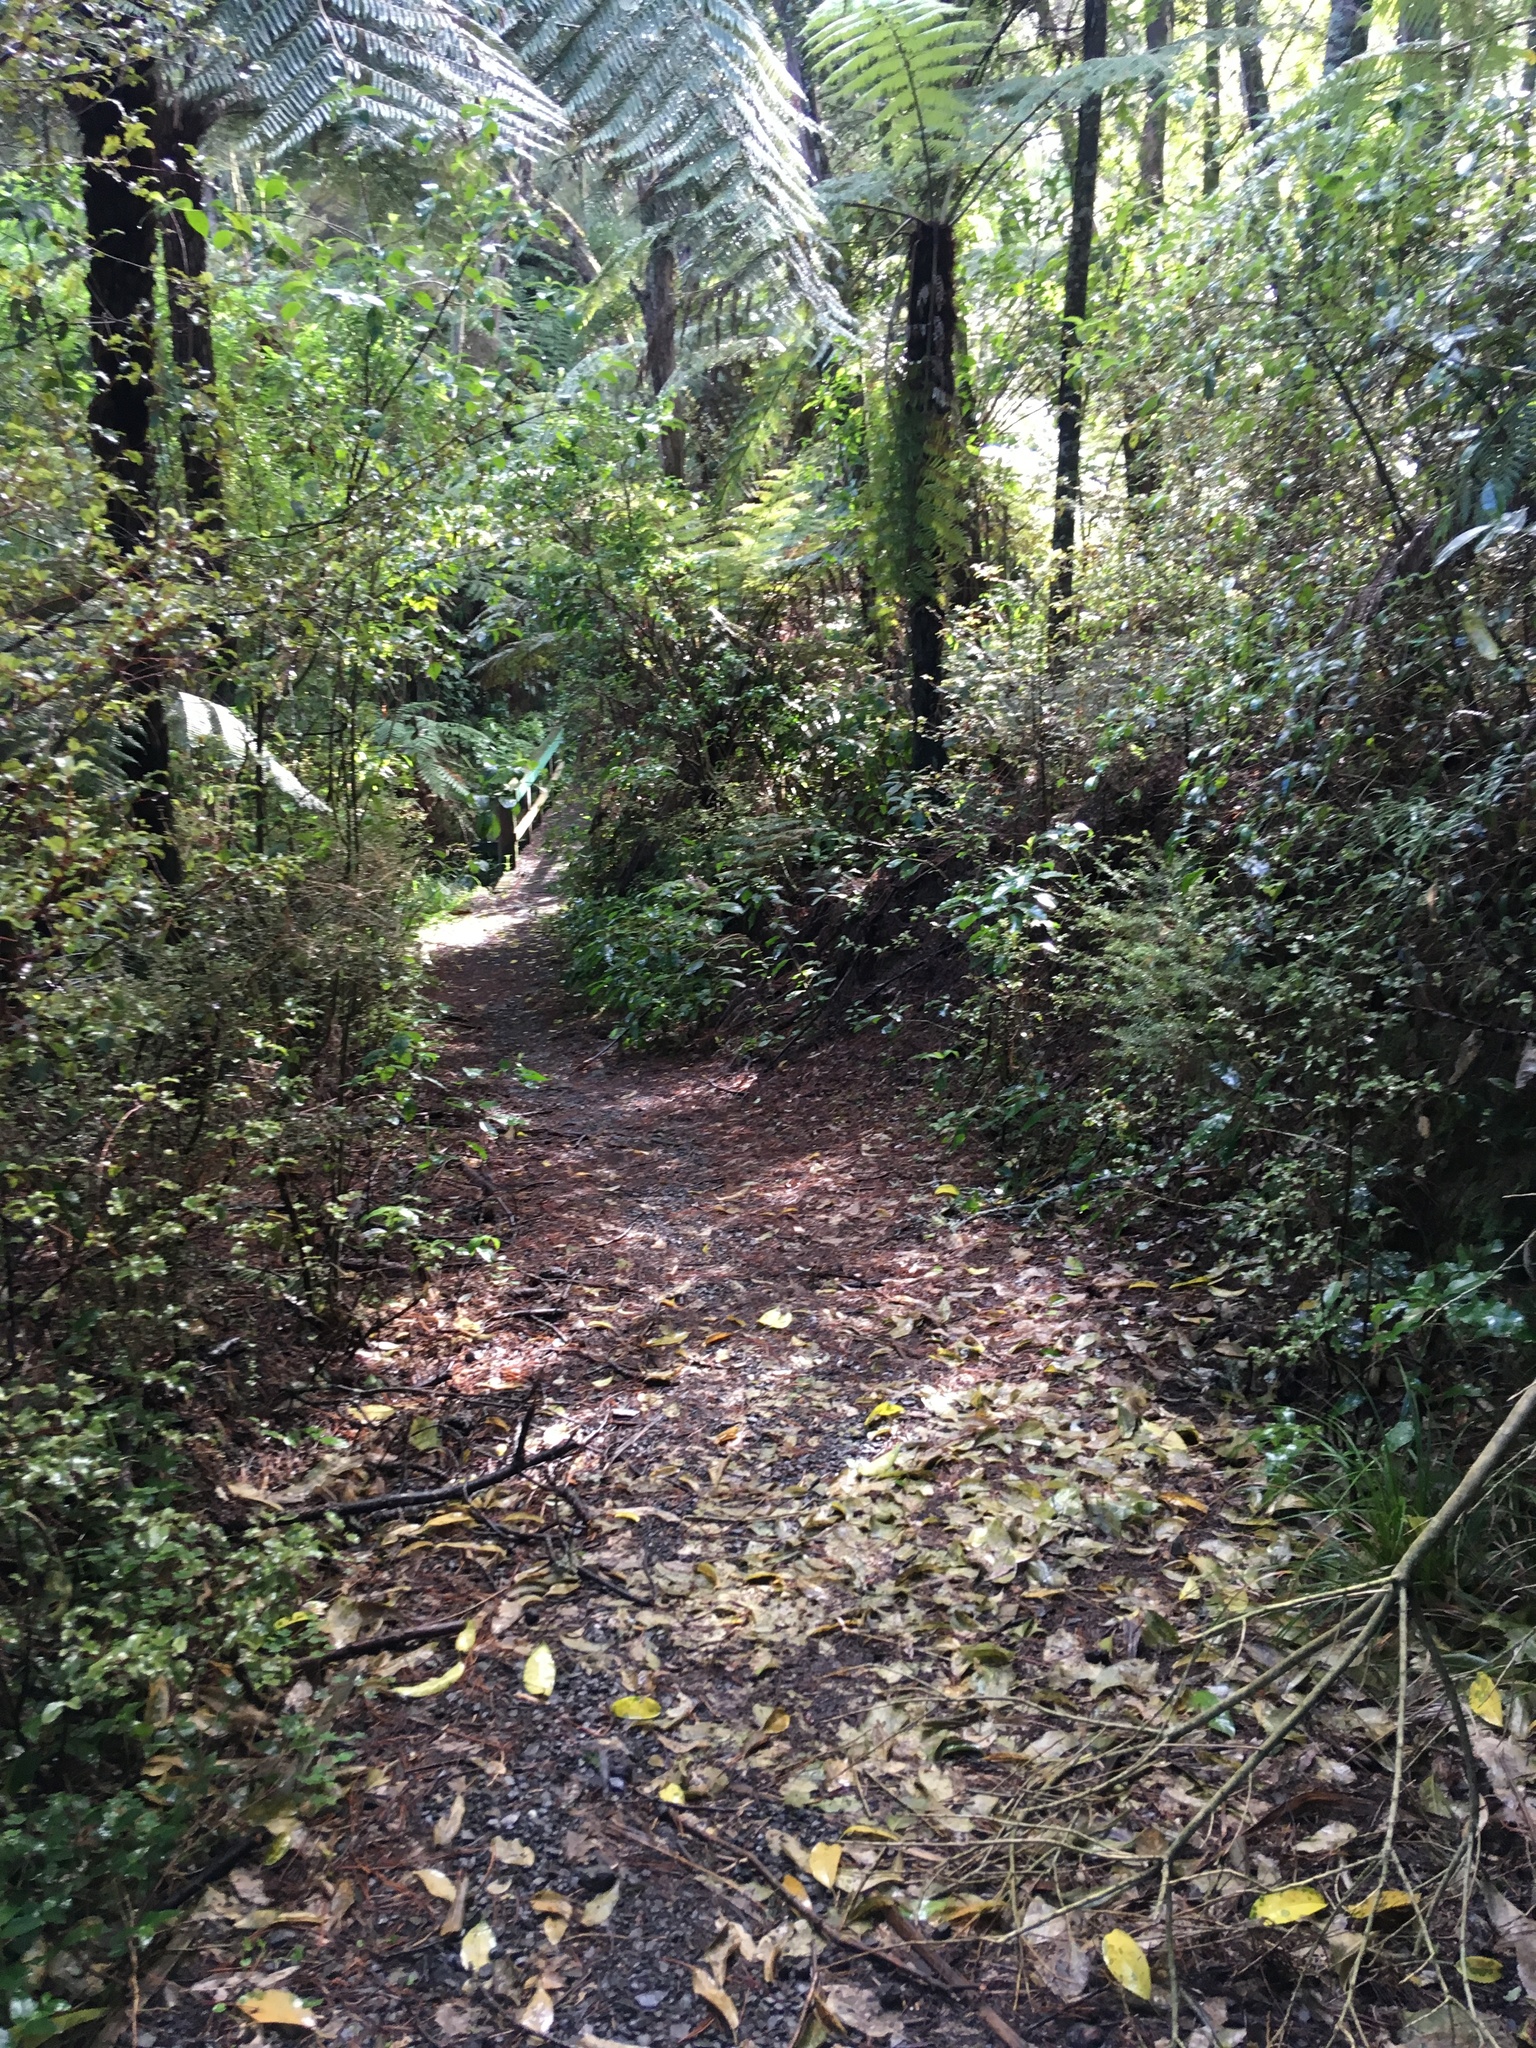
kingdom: Plantae
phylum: Tracheophyta
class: Polypodiopsida
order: Cyatheales
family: Cyatheaceae
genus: Alsophila
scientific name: Alsophila dealbata
